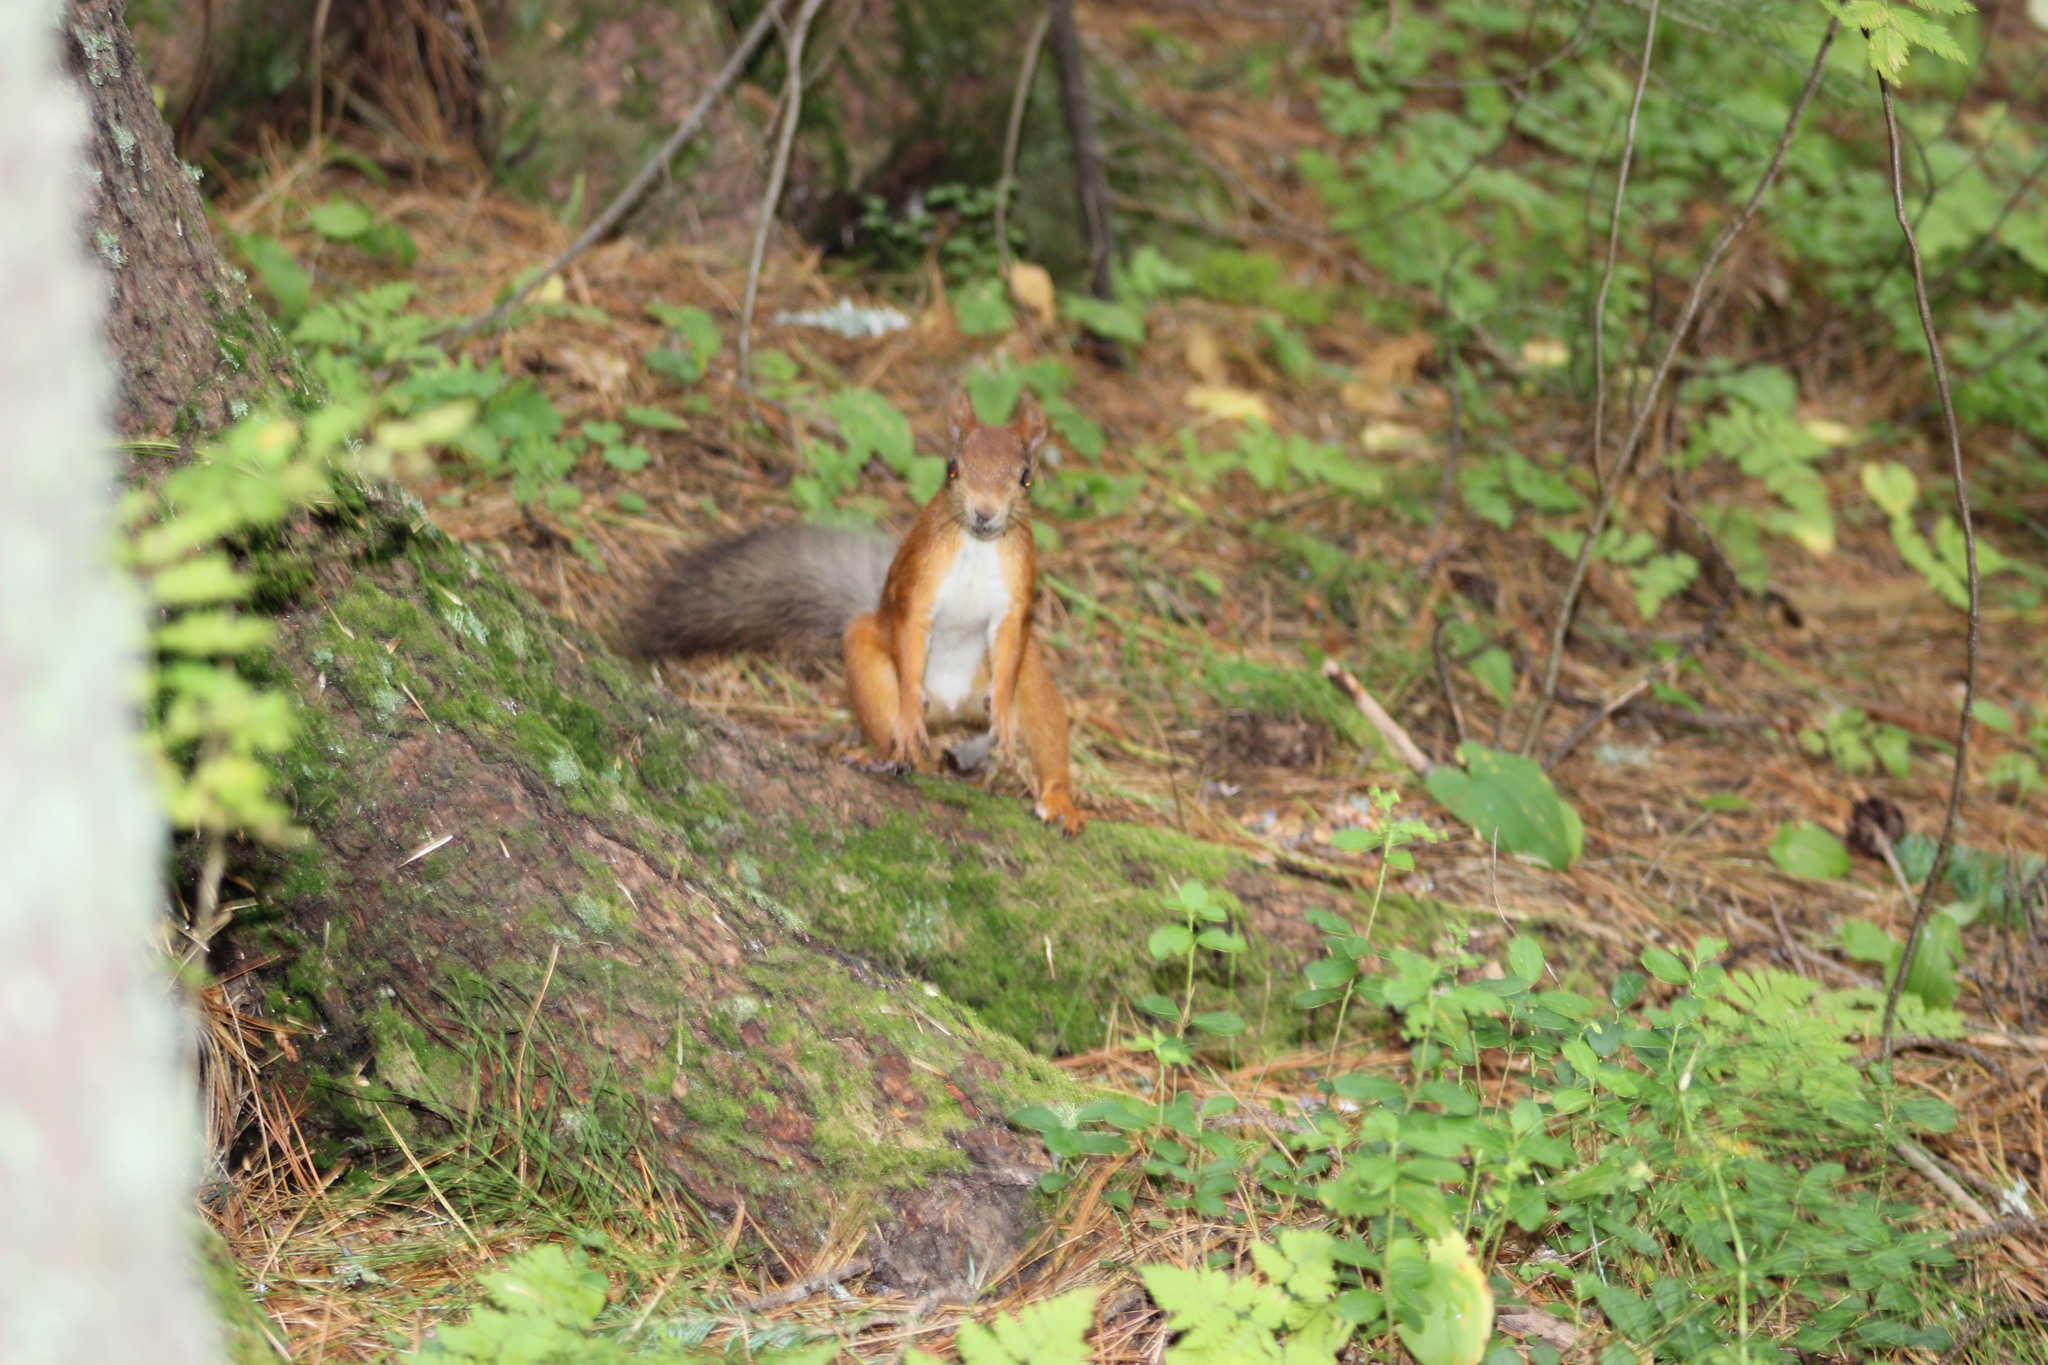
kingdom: Animalia
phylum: Chordata
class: Mammalia
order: Rodentia
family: Sciuridae
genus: Sciurus
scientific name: Sciurus vulgaris
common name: Eurasian red squirrel
